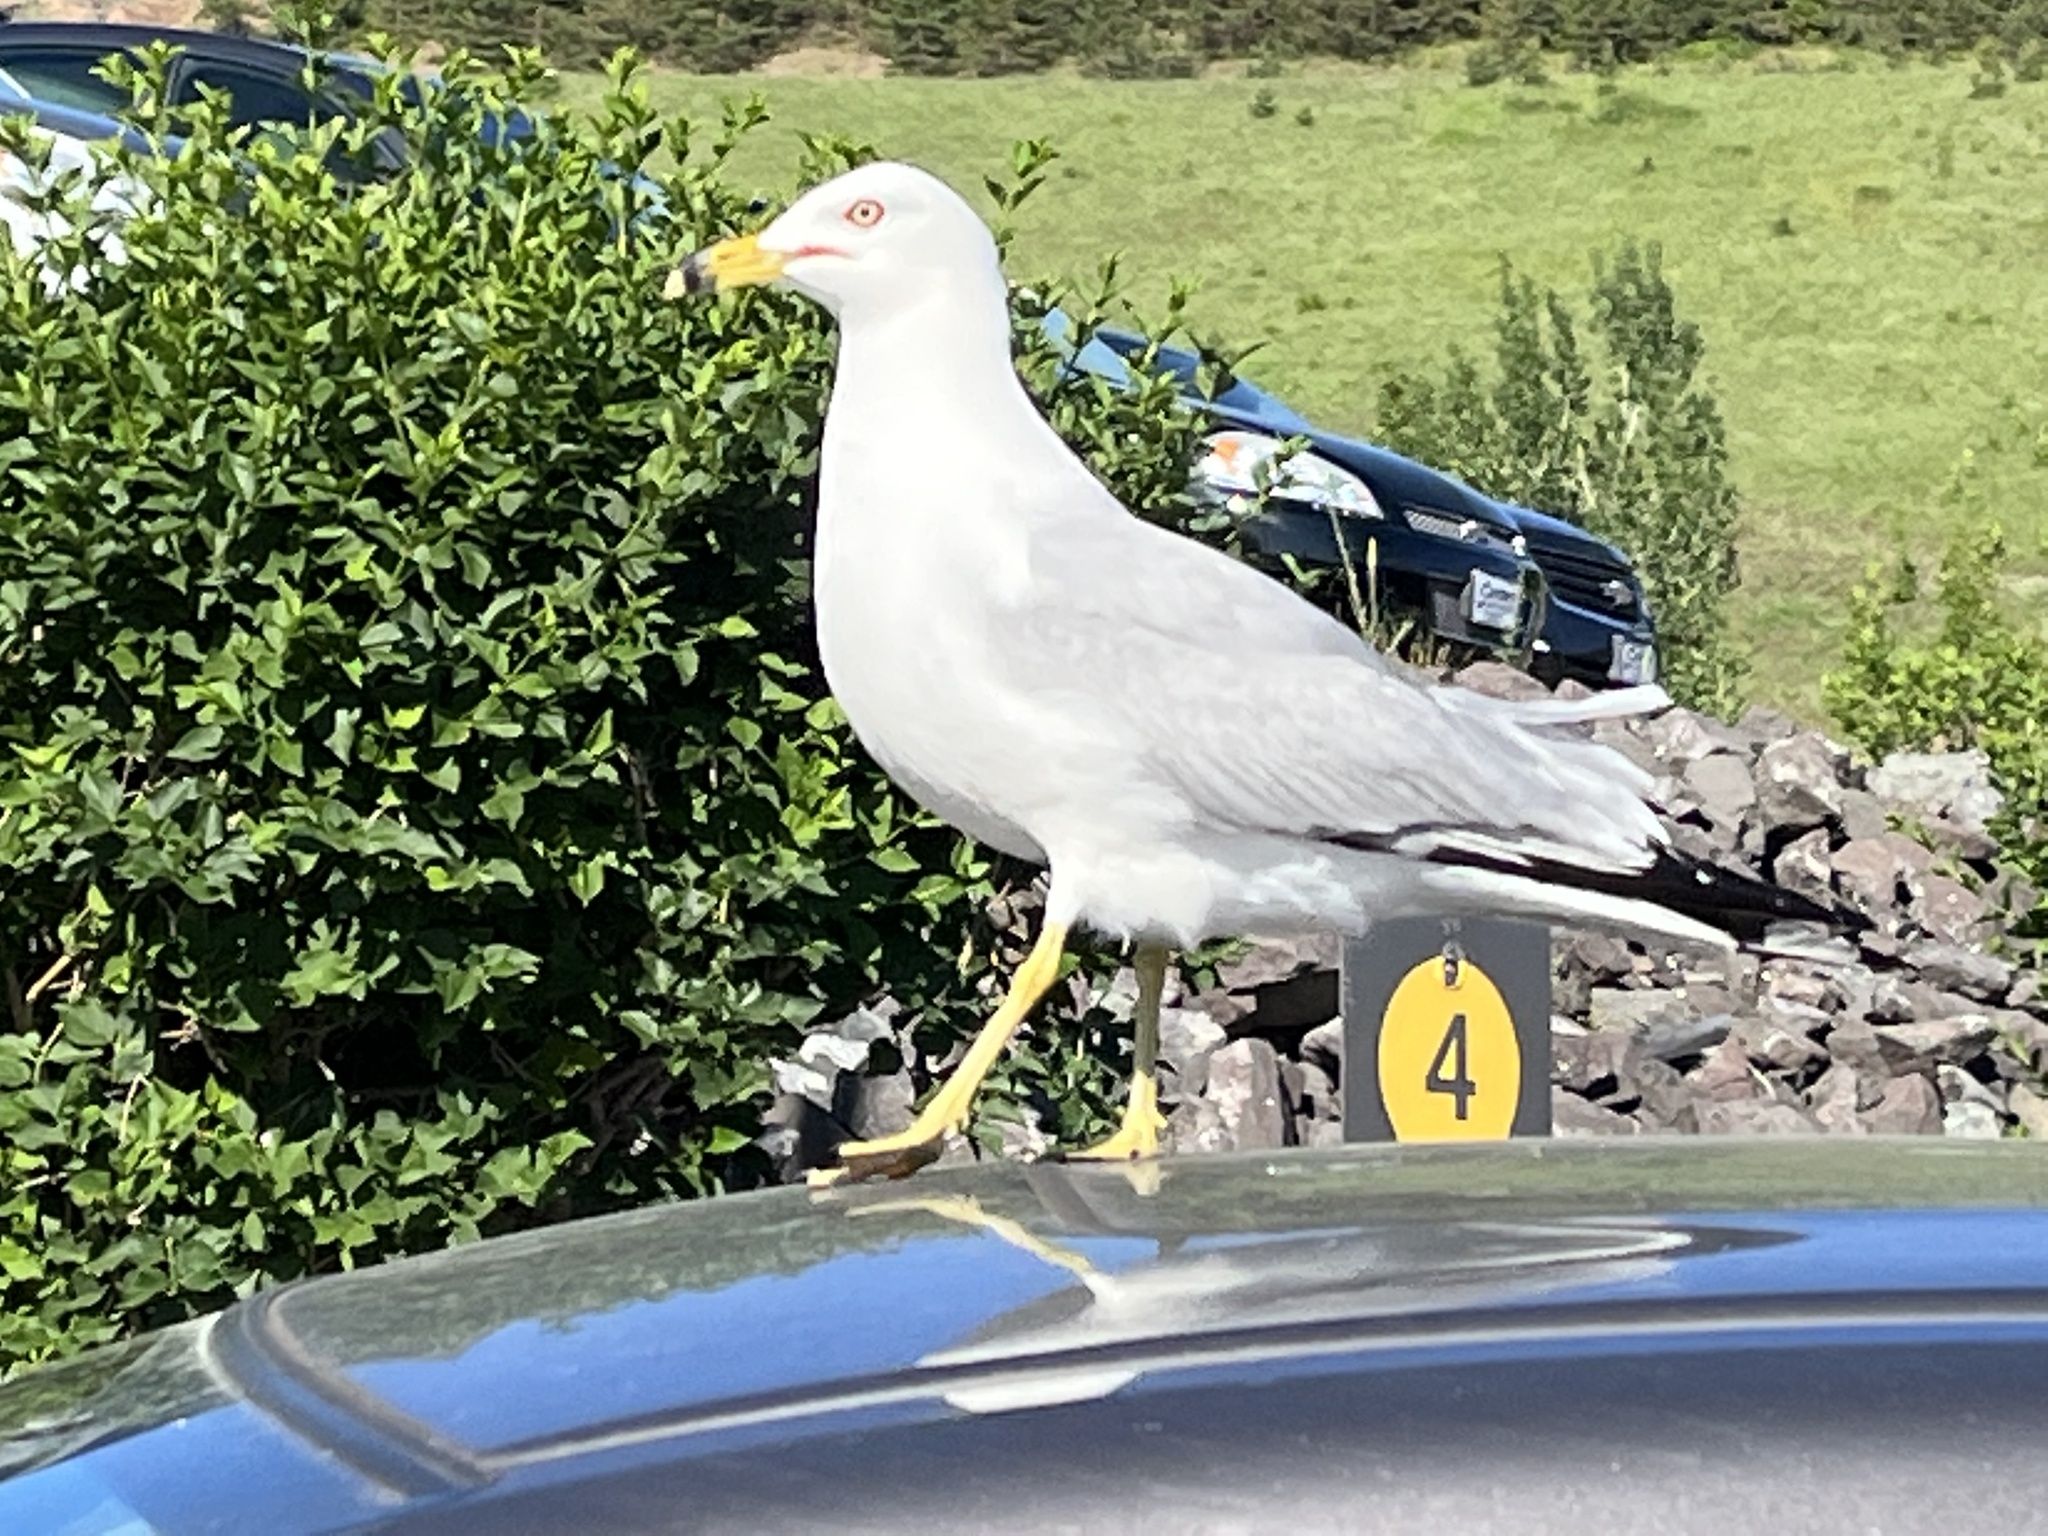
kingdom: Animalia
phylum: Chordata
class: Aves
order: Charadriiformes
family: Laridae
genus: Larus
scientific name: Larus delawarensis
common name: Ring-billed gull
